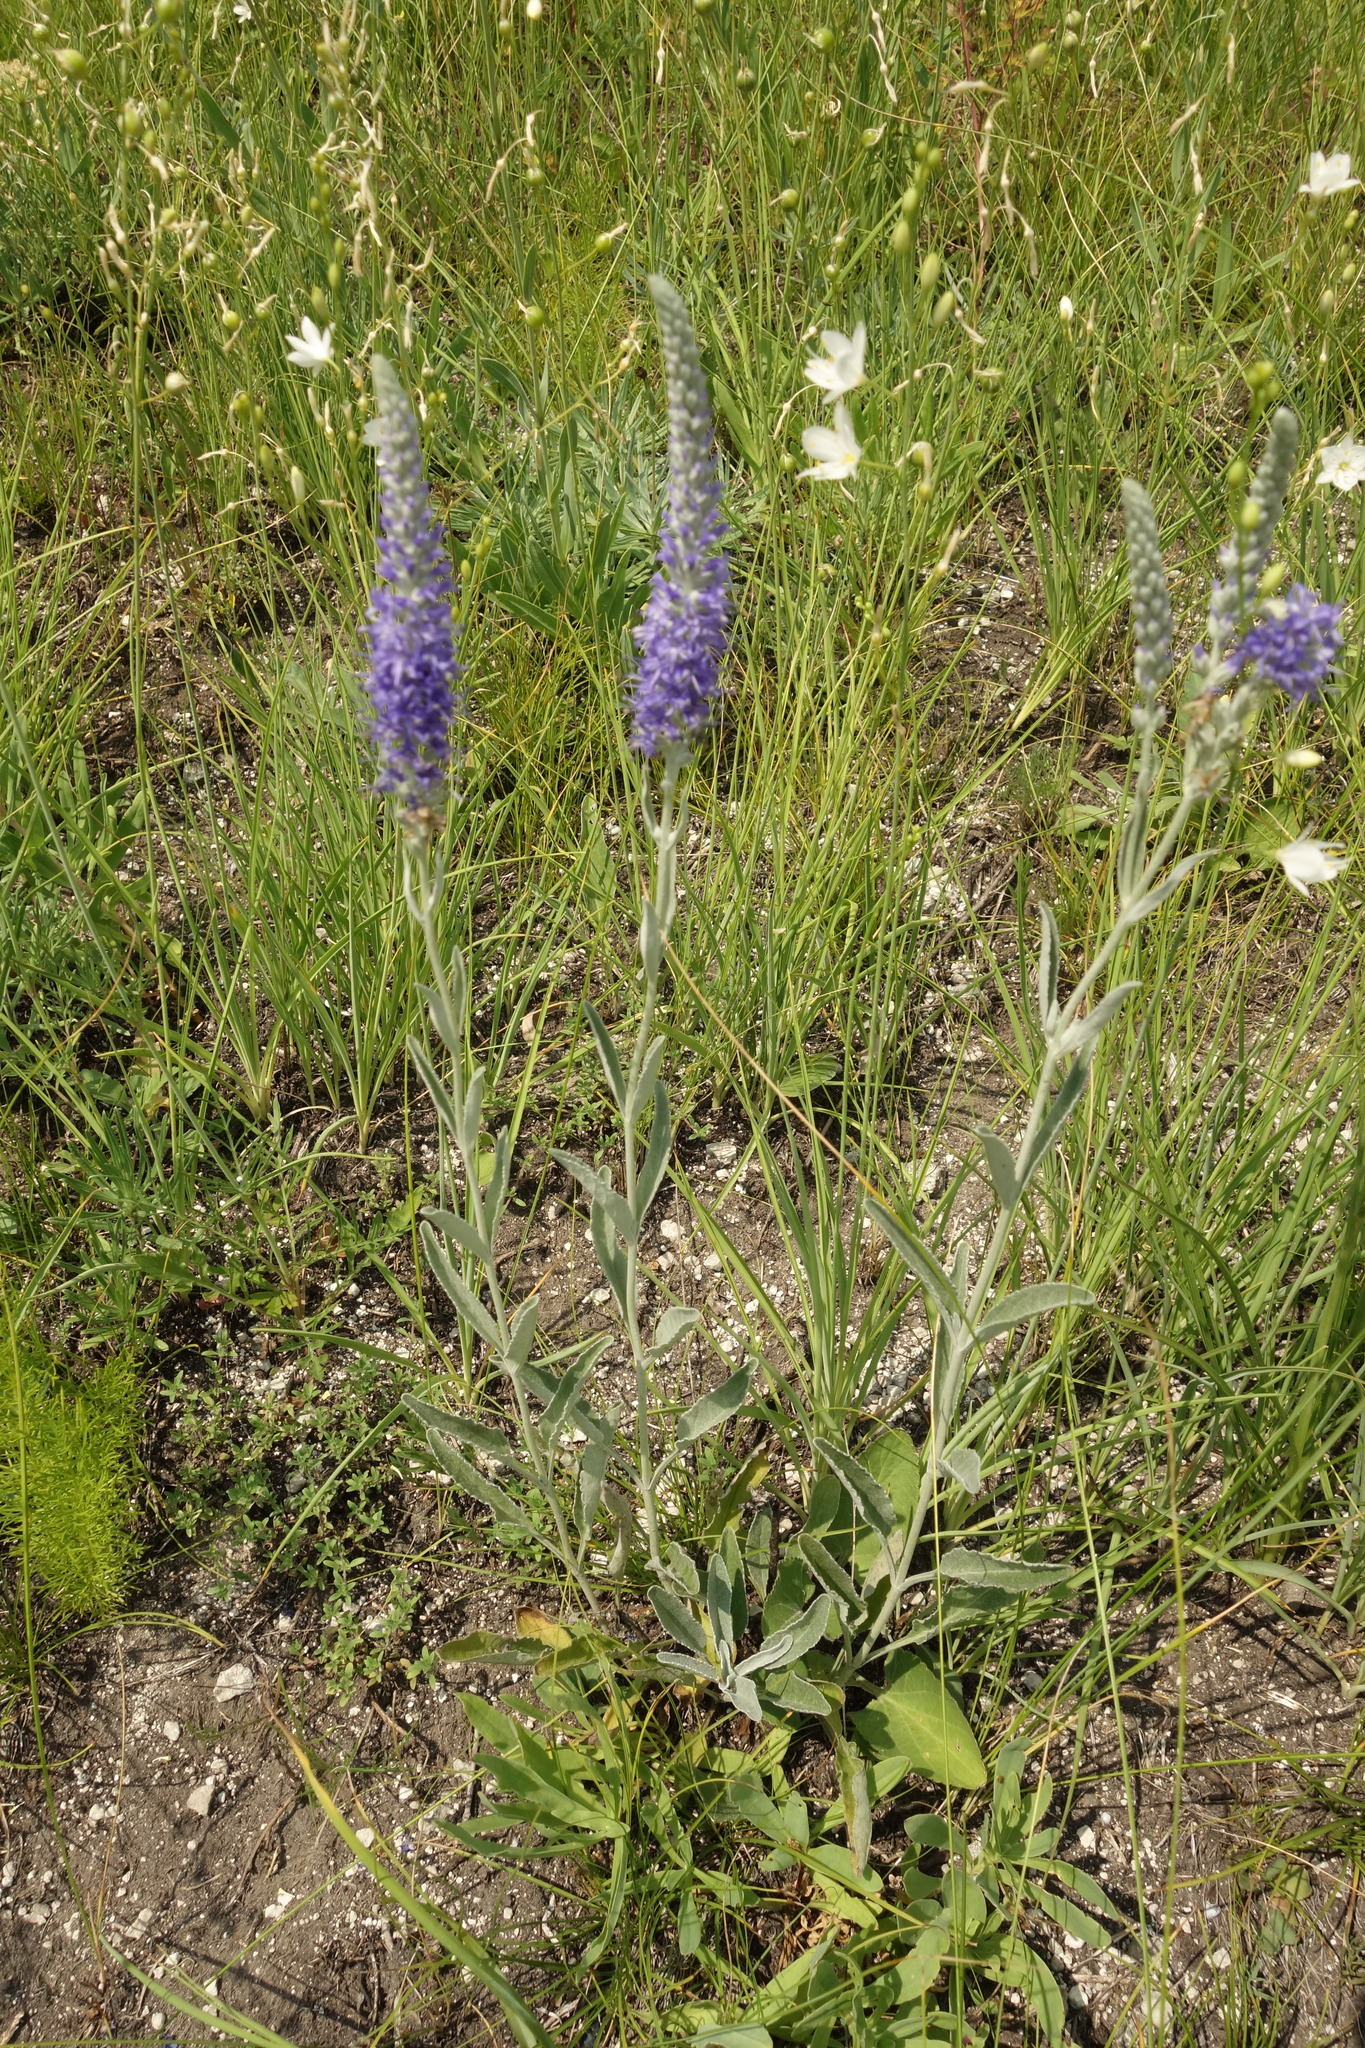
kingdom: Plantae
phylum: Tracheophyta
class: Magnoliopsida
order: Lamiales
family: Plantaginaceae
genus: Veronica
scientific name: Veronica incana
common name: Silver speedwell
